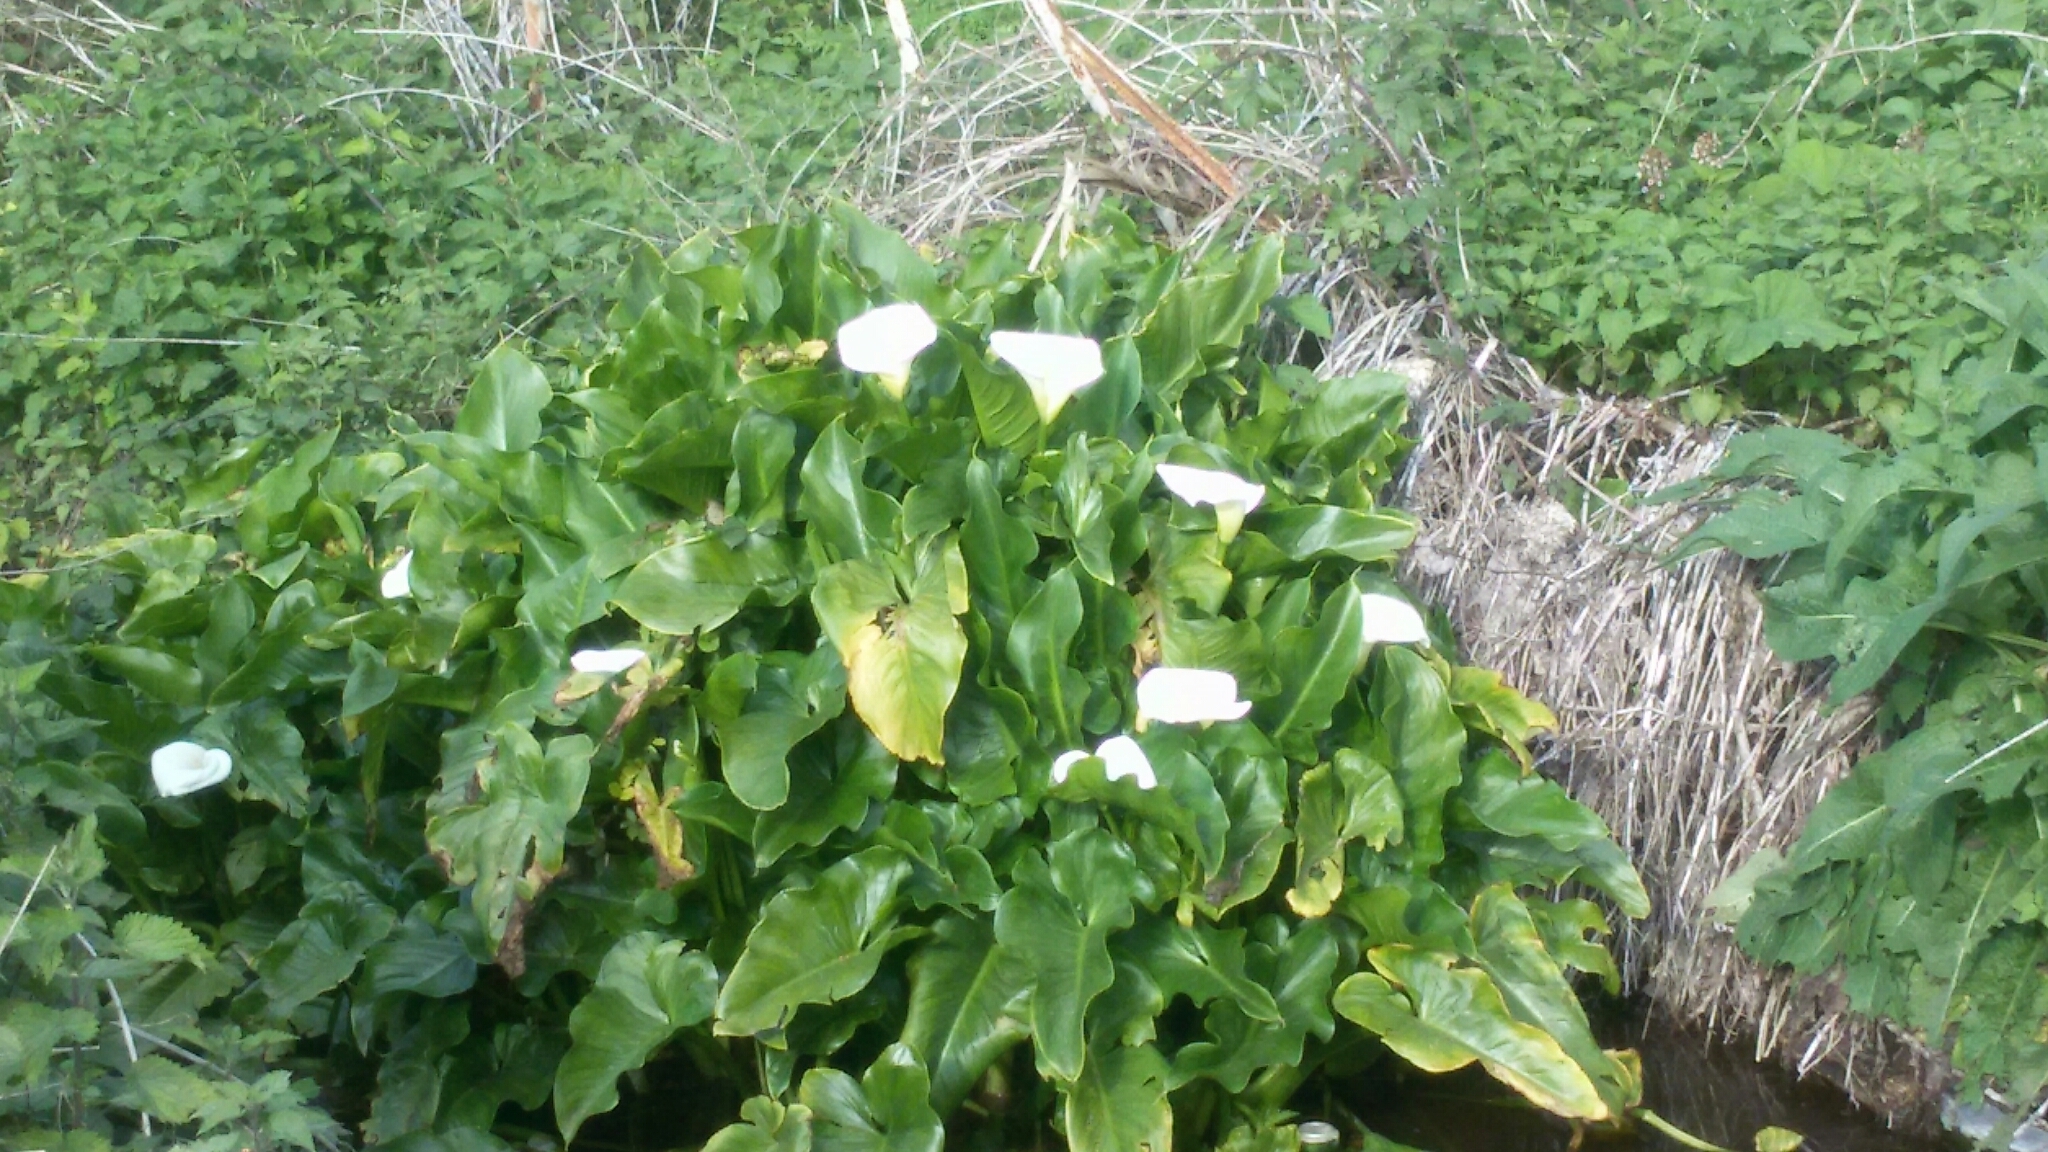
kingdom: Plantae
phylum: Tracheophyta
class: Liliopsida
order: Alismatales
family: Araceae
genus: Zantedeschia
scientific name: Zantedeschia aethiopica
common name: Altar-lily
